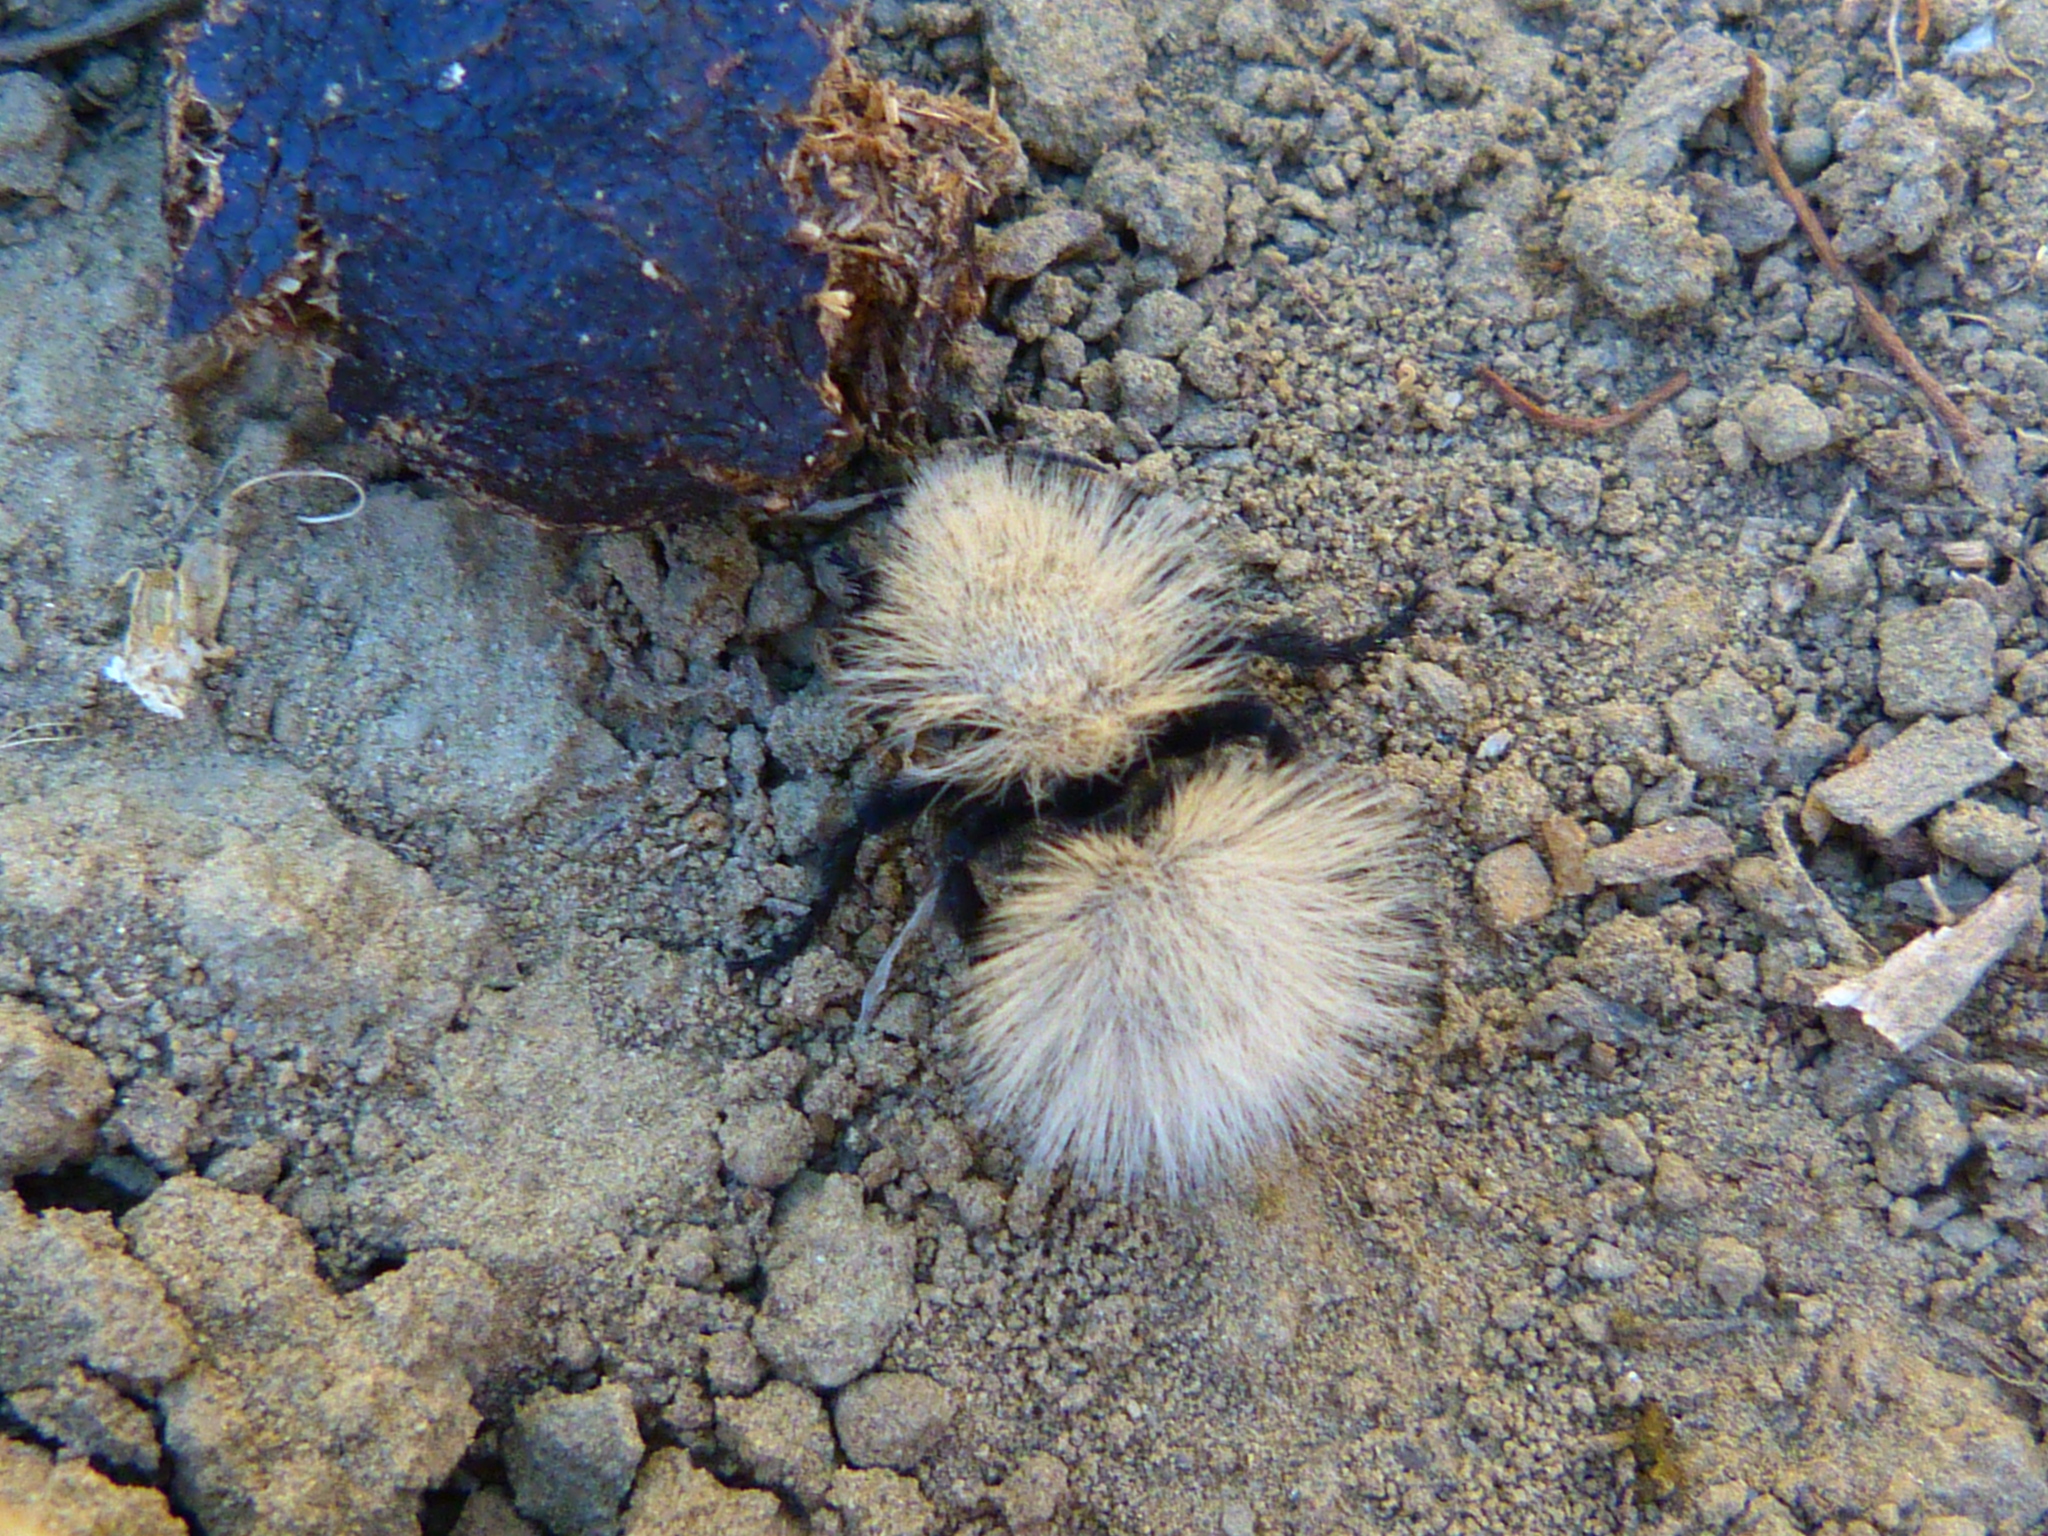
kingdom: Animalia
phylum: Arthropoda
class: Insecta
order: Hymenoptera
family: Mutillidae
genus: Dasymutilla
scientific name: Dasymutilla
